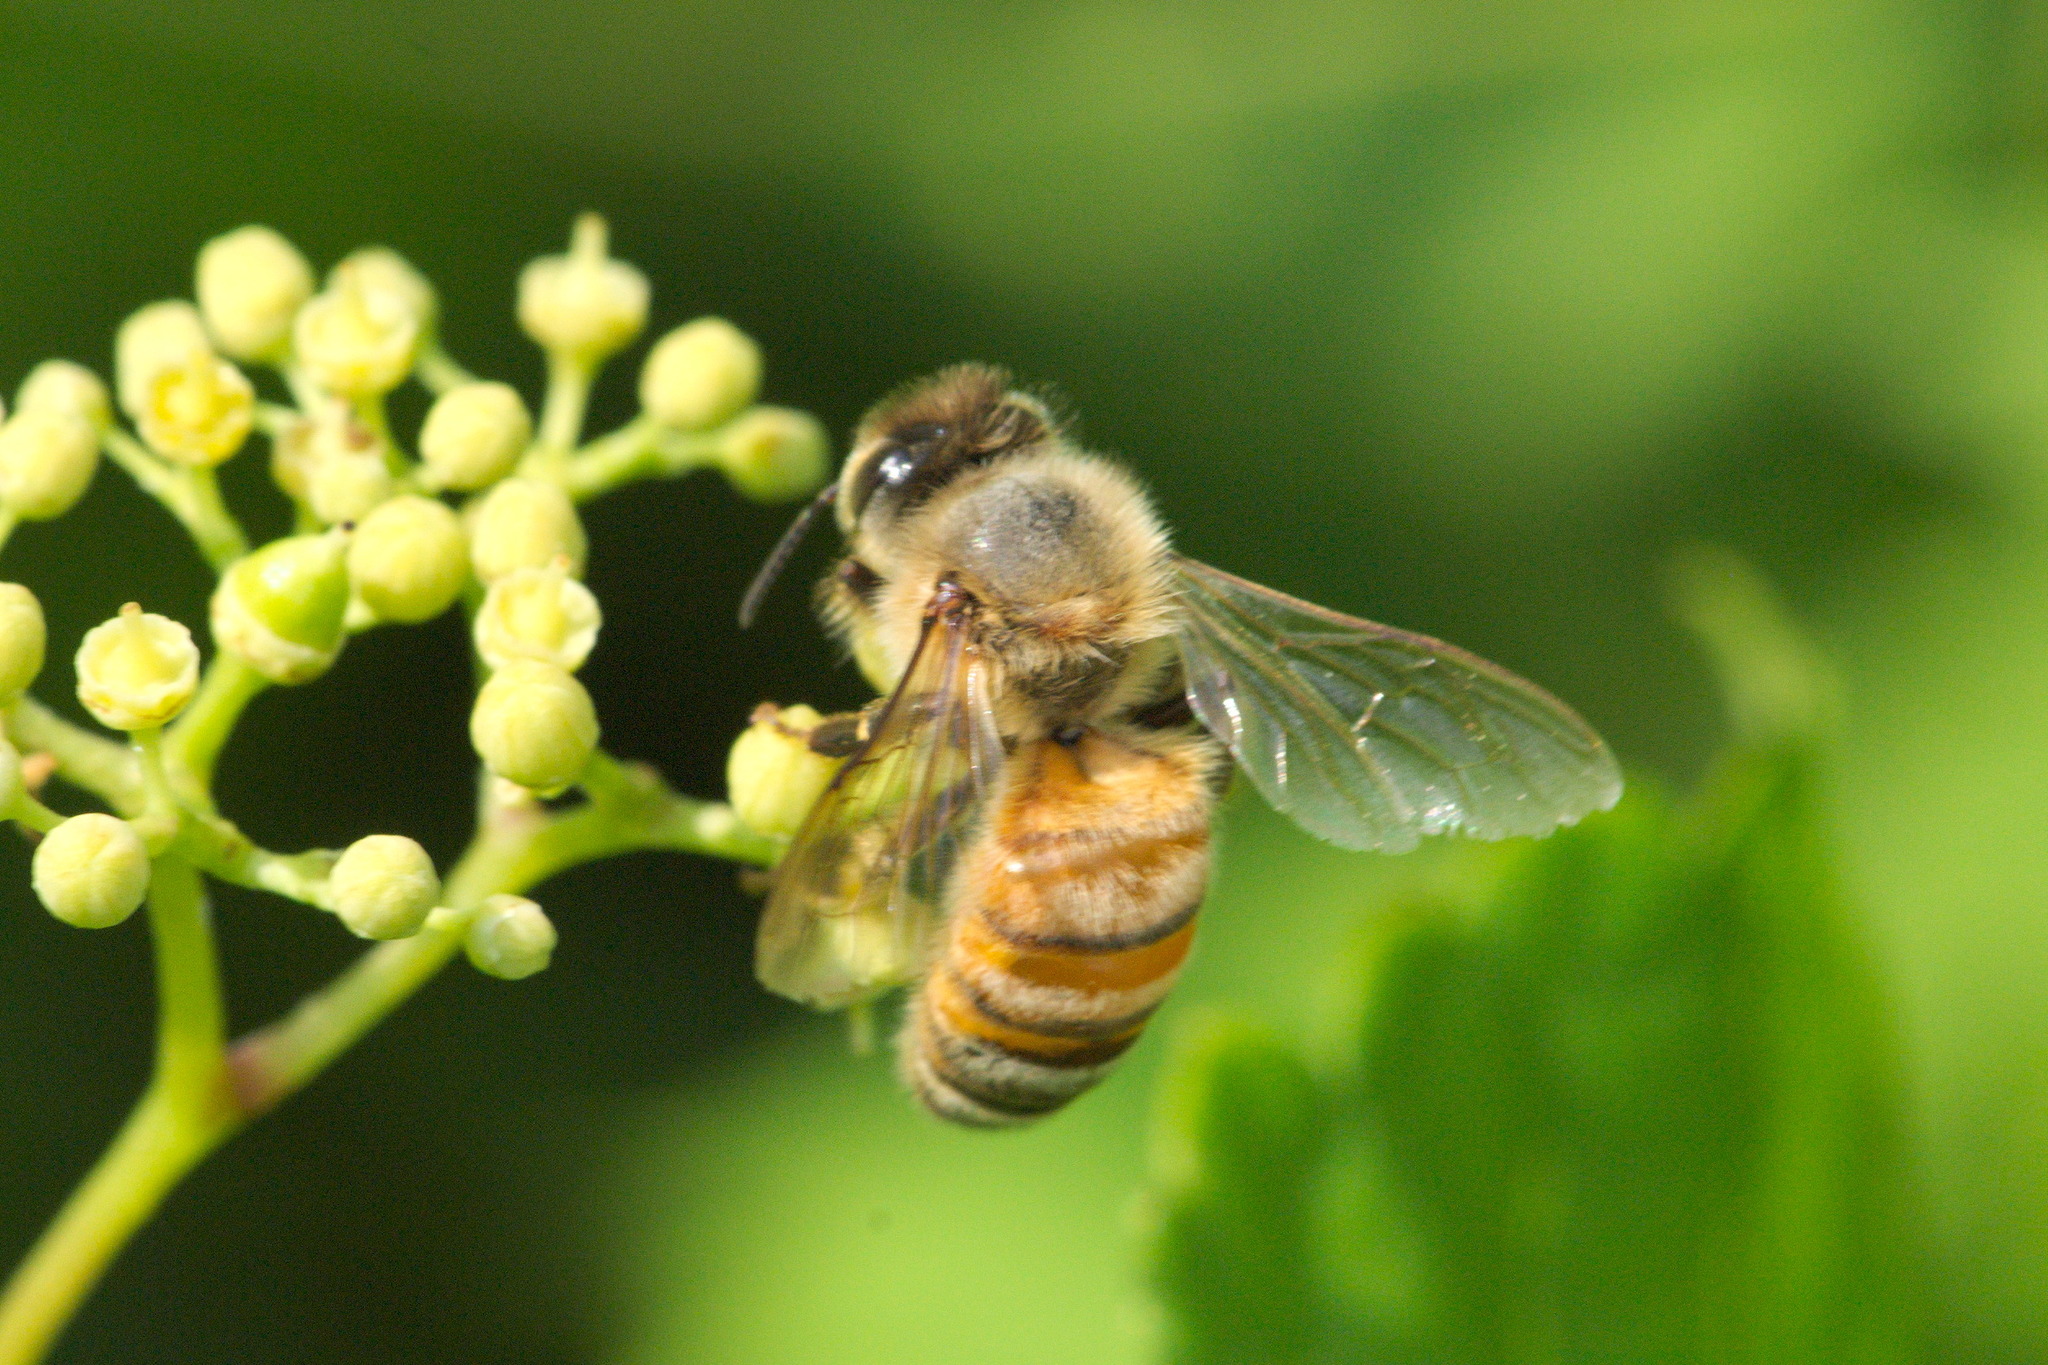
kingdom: Animalia
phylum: Arthropoda
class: Insecta
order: Hymenoptera
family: Apidae
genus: Apis
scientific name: Apis mellifera
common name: Honey bee
